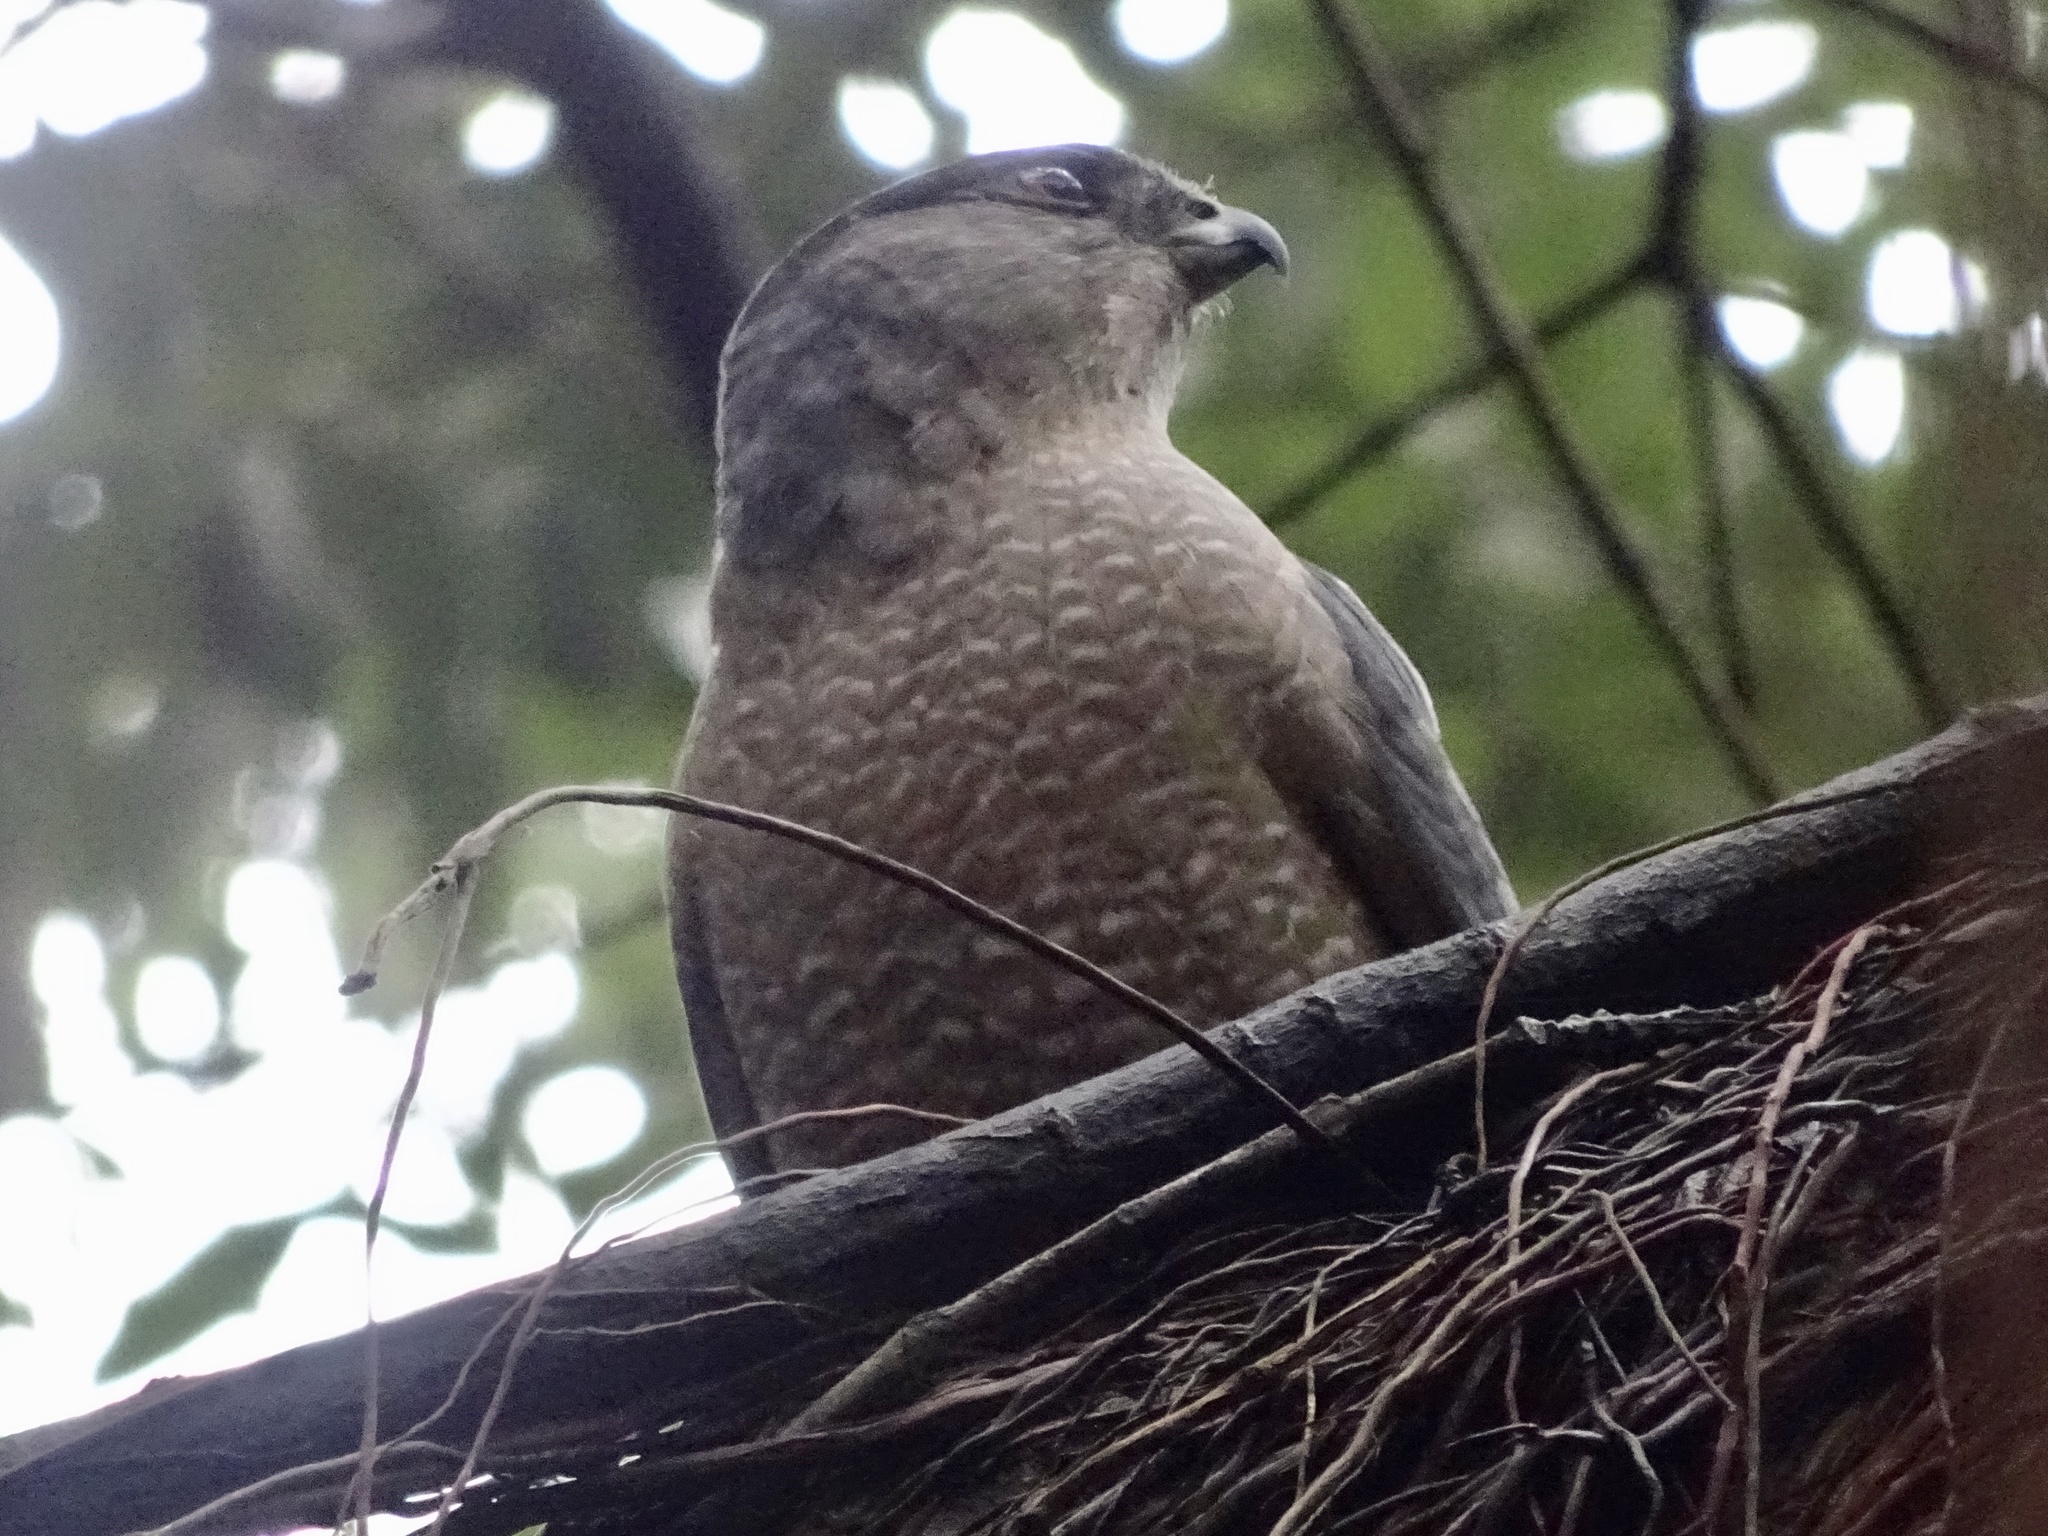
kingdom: Animalia
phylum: Chordata
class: Aves
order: Accipitriformes
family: Accipitridae
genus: Accipiter
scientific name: Accipiter cooperii
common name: Cooper's hawk
